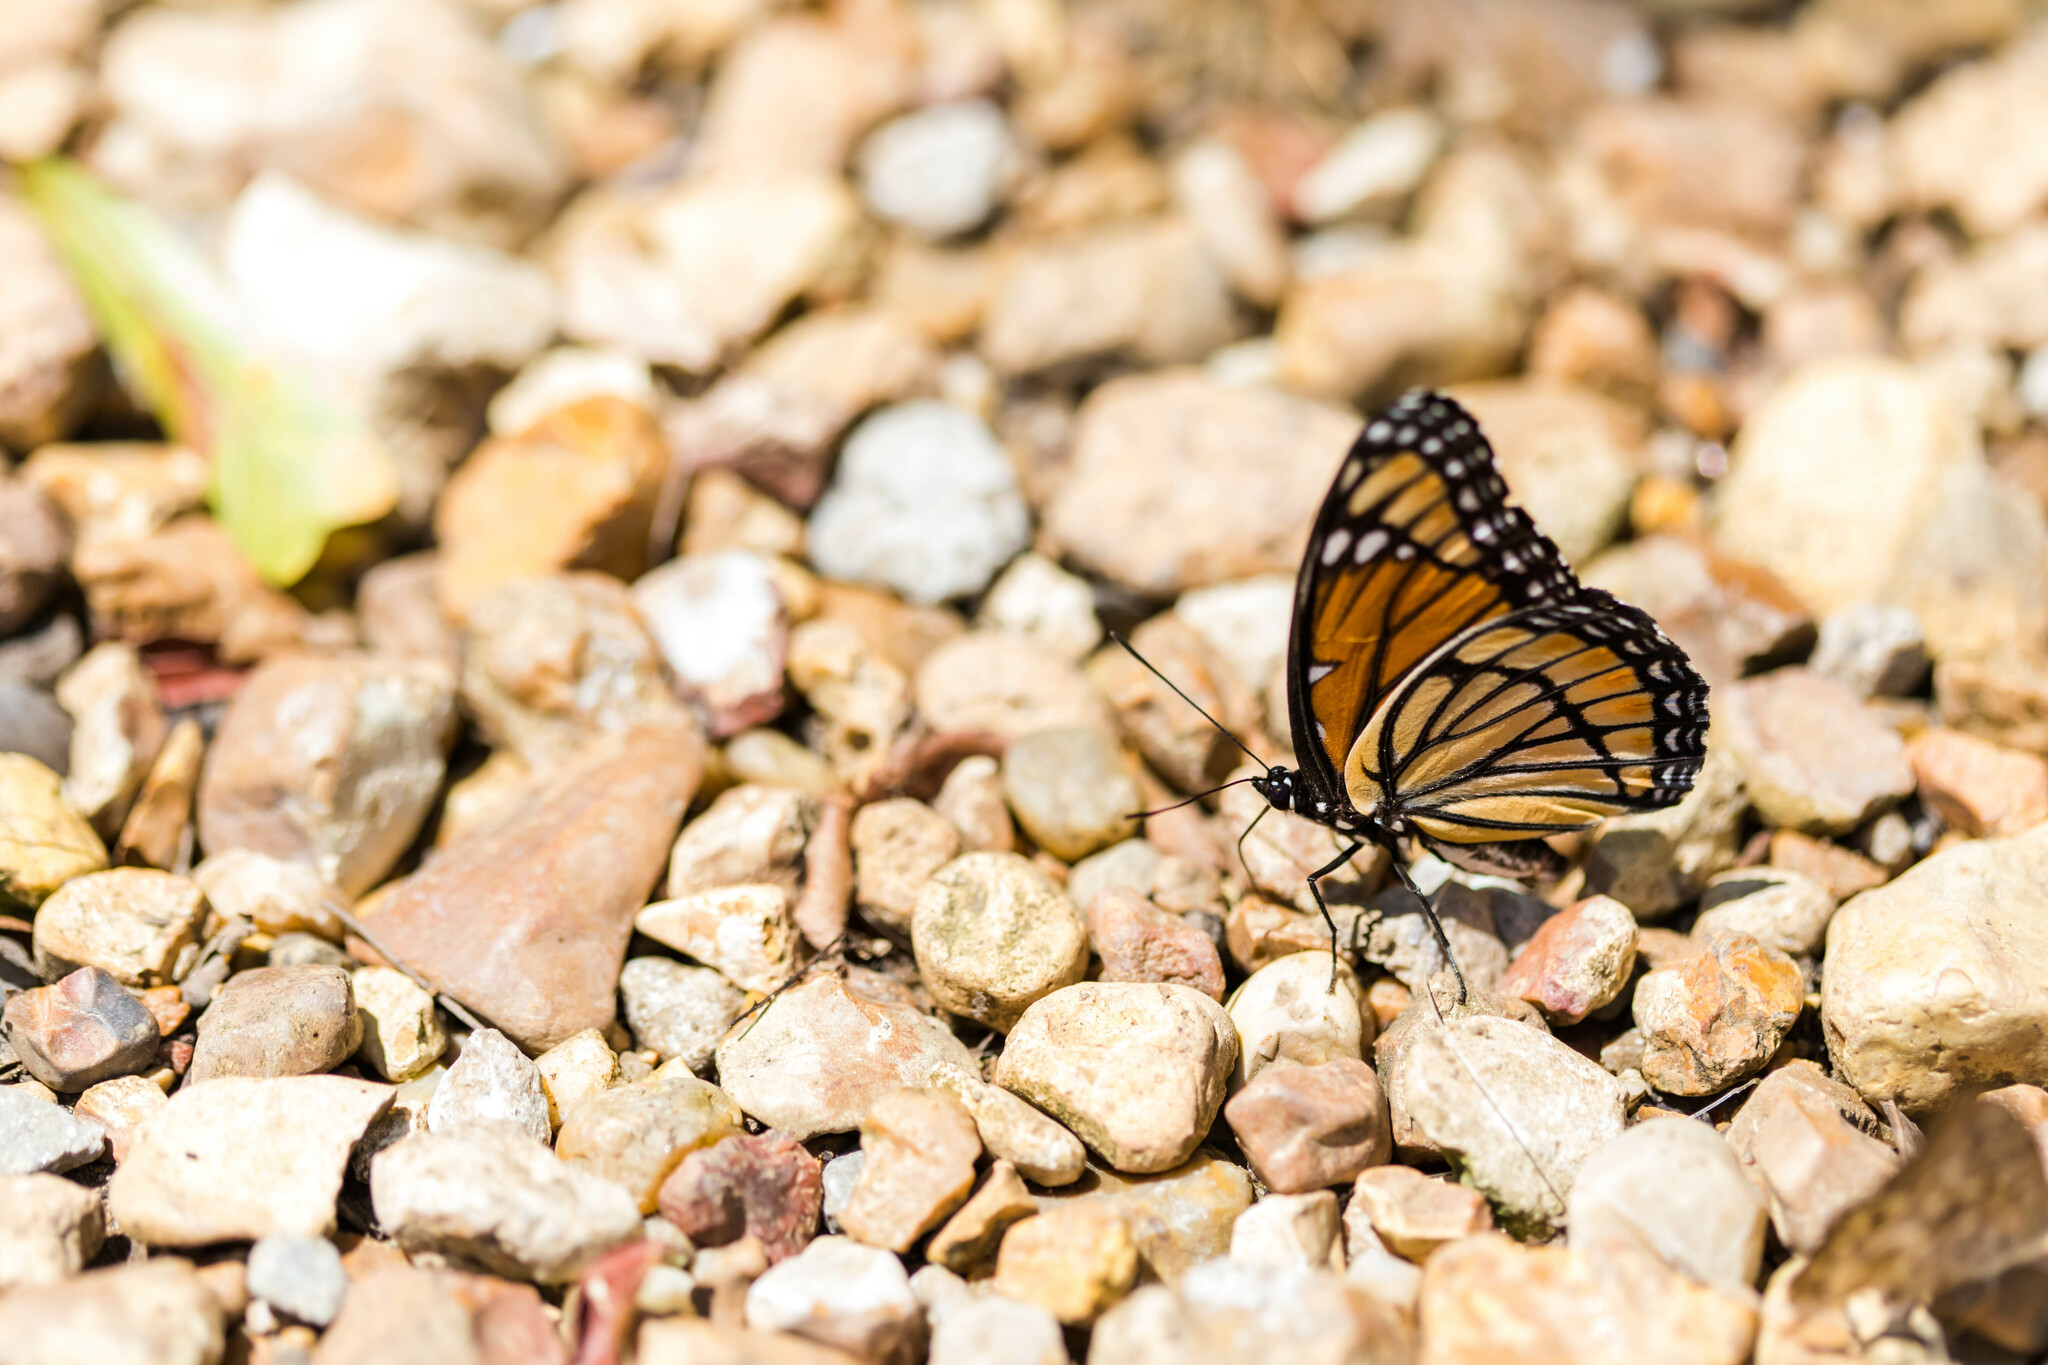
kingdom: Animalia
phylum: Arthropoda
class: Insecta
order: Lepidoptera
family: Nymphalidae
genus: Limenitis
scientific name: Limenitis archippus
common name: Viceroy
